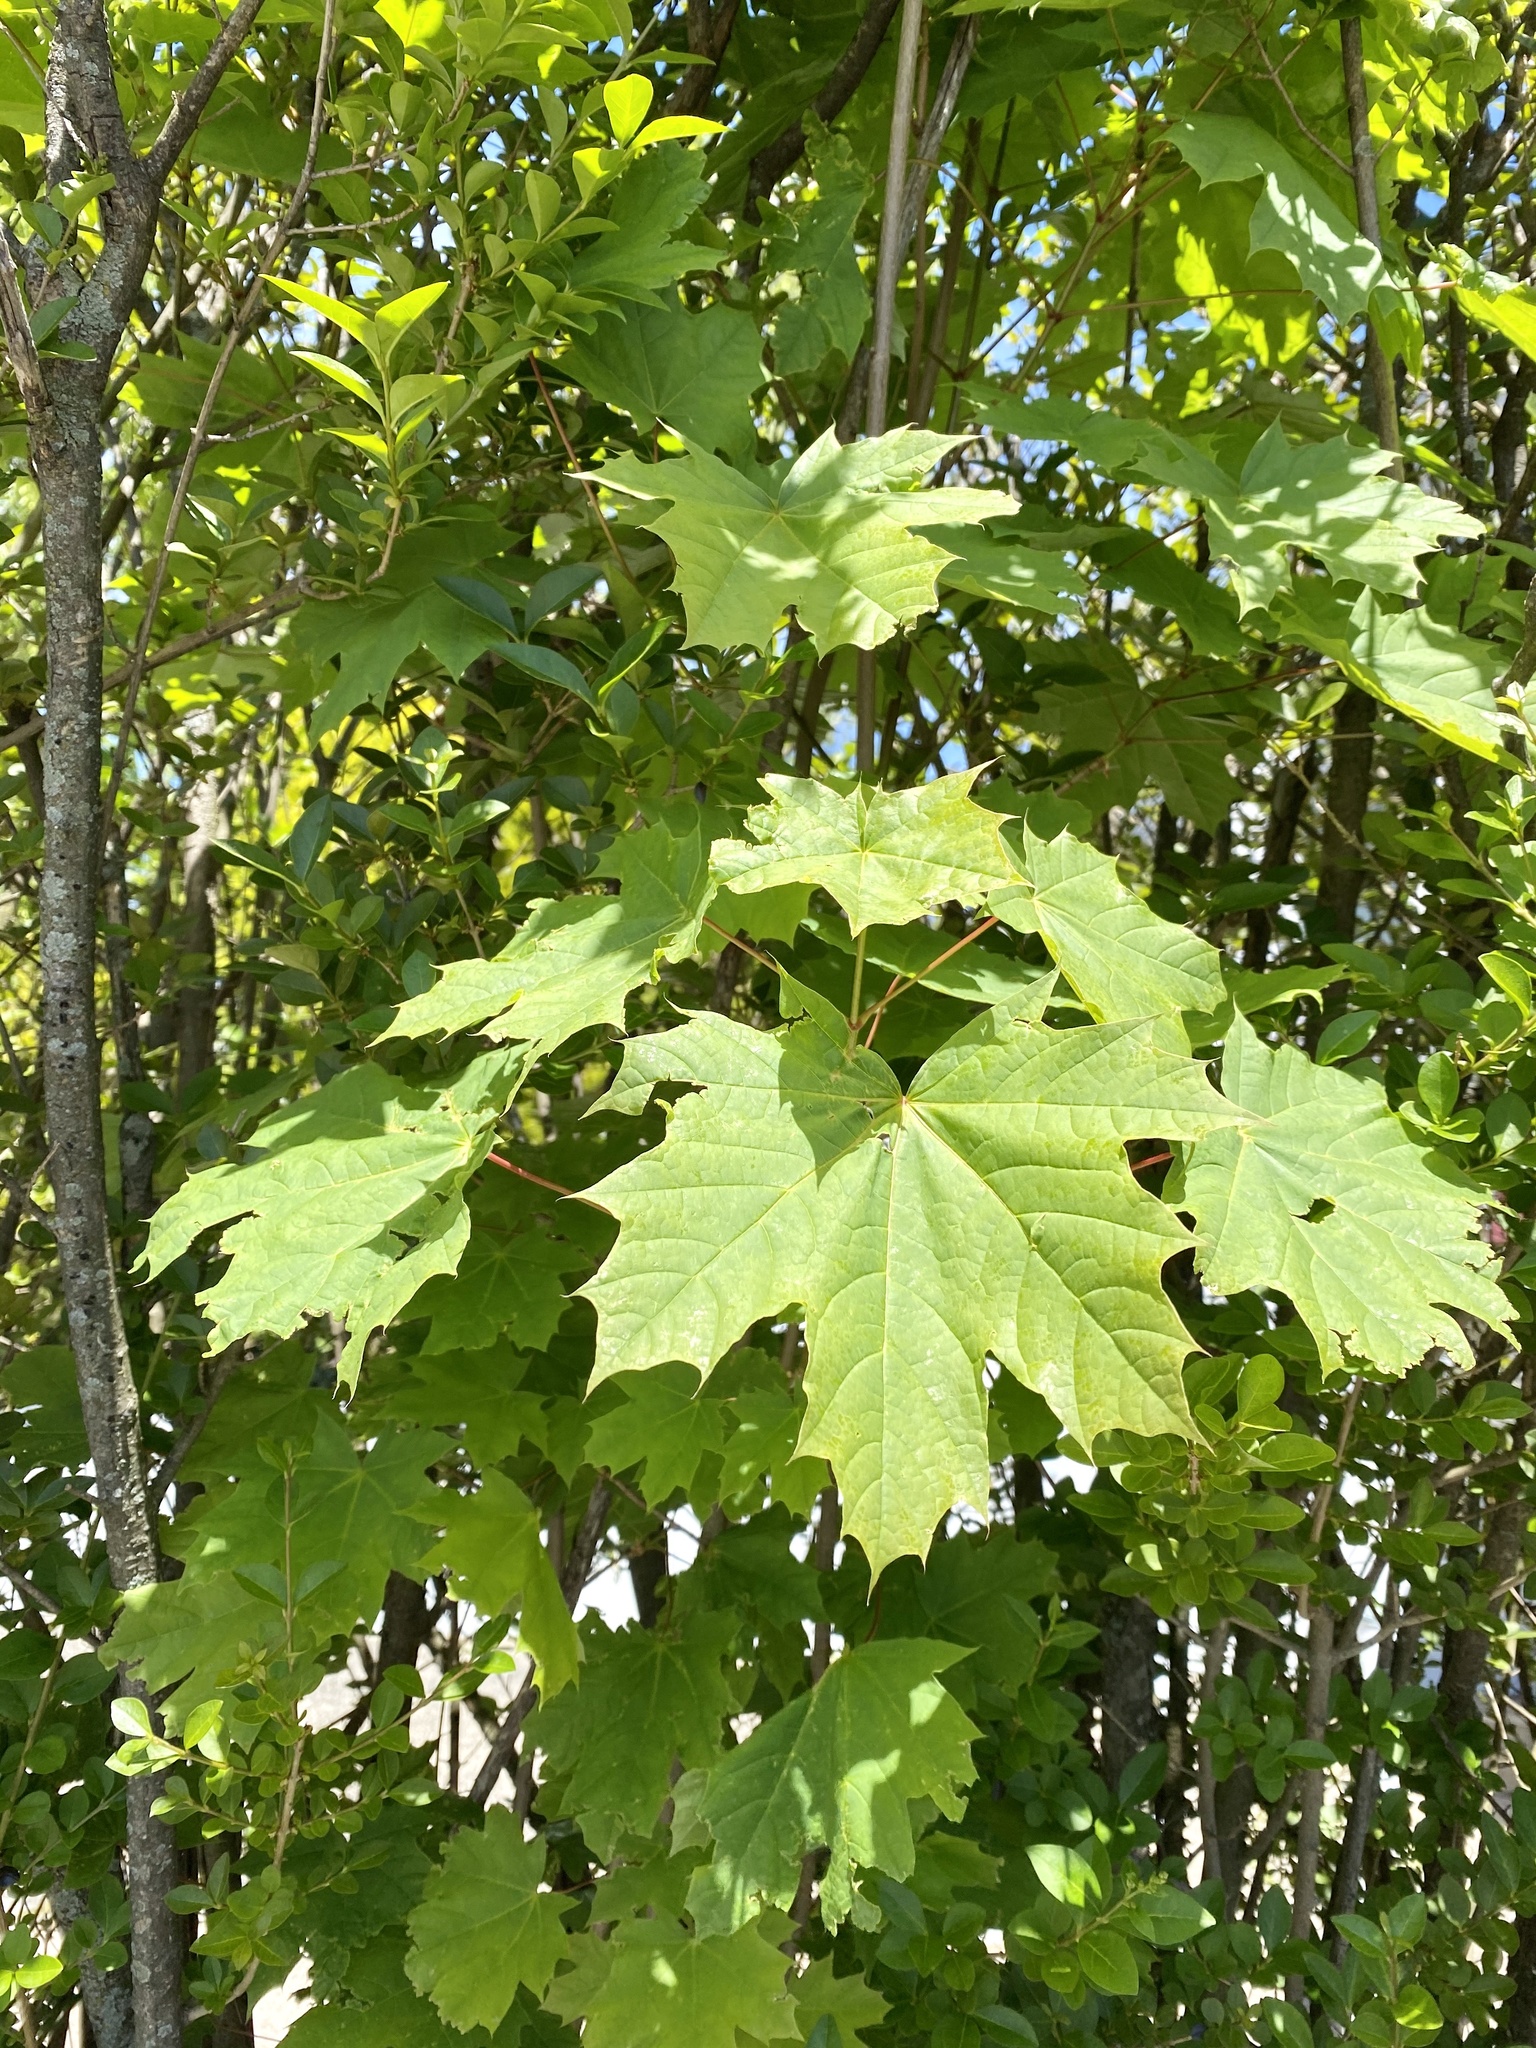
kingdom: Plantae
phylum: Tracheophyta
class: Magnoliopsida
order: Sapindales
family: Sapindaceae
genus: Acer
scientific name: Acer platanoides
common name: Norway maple
